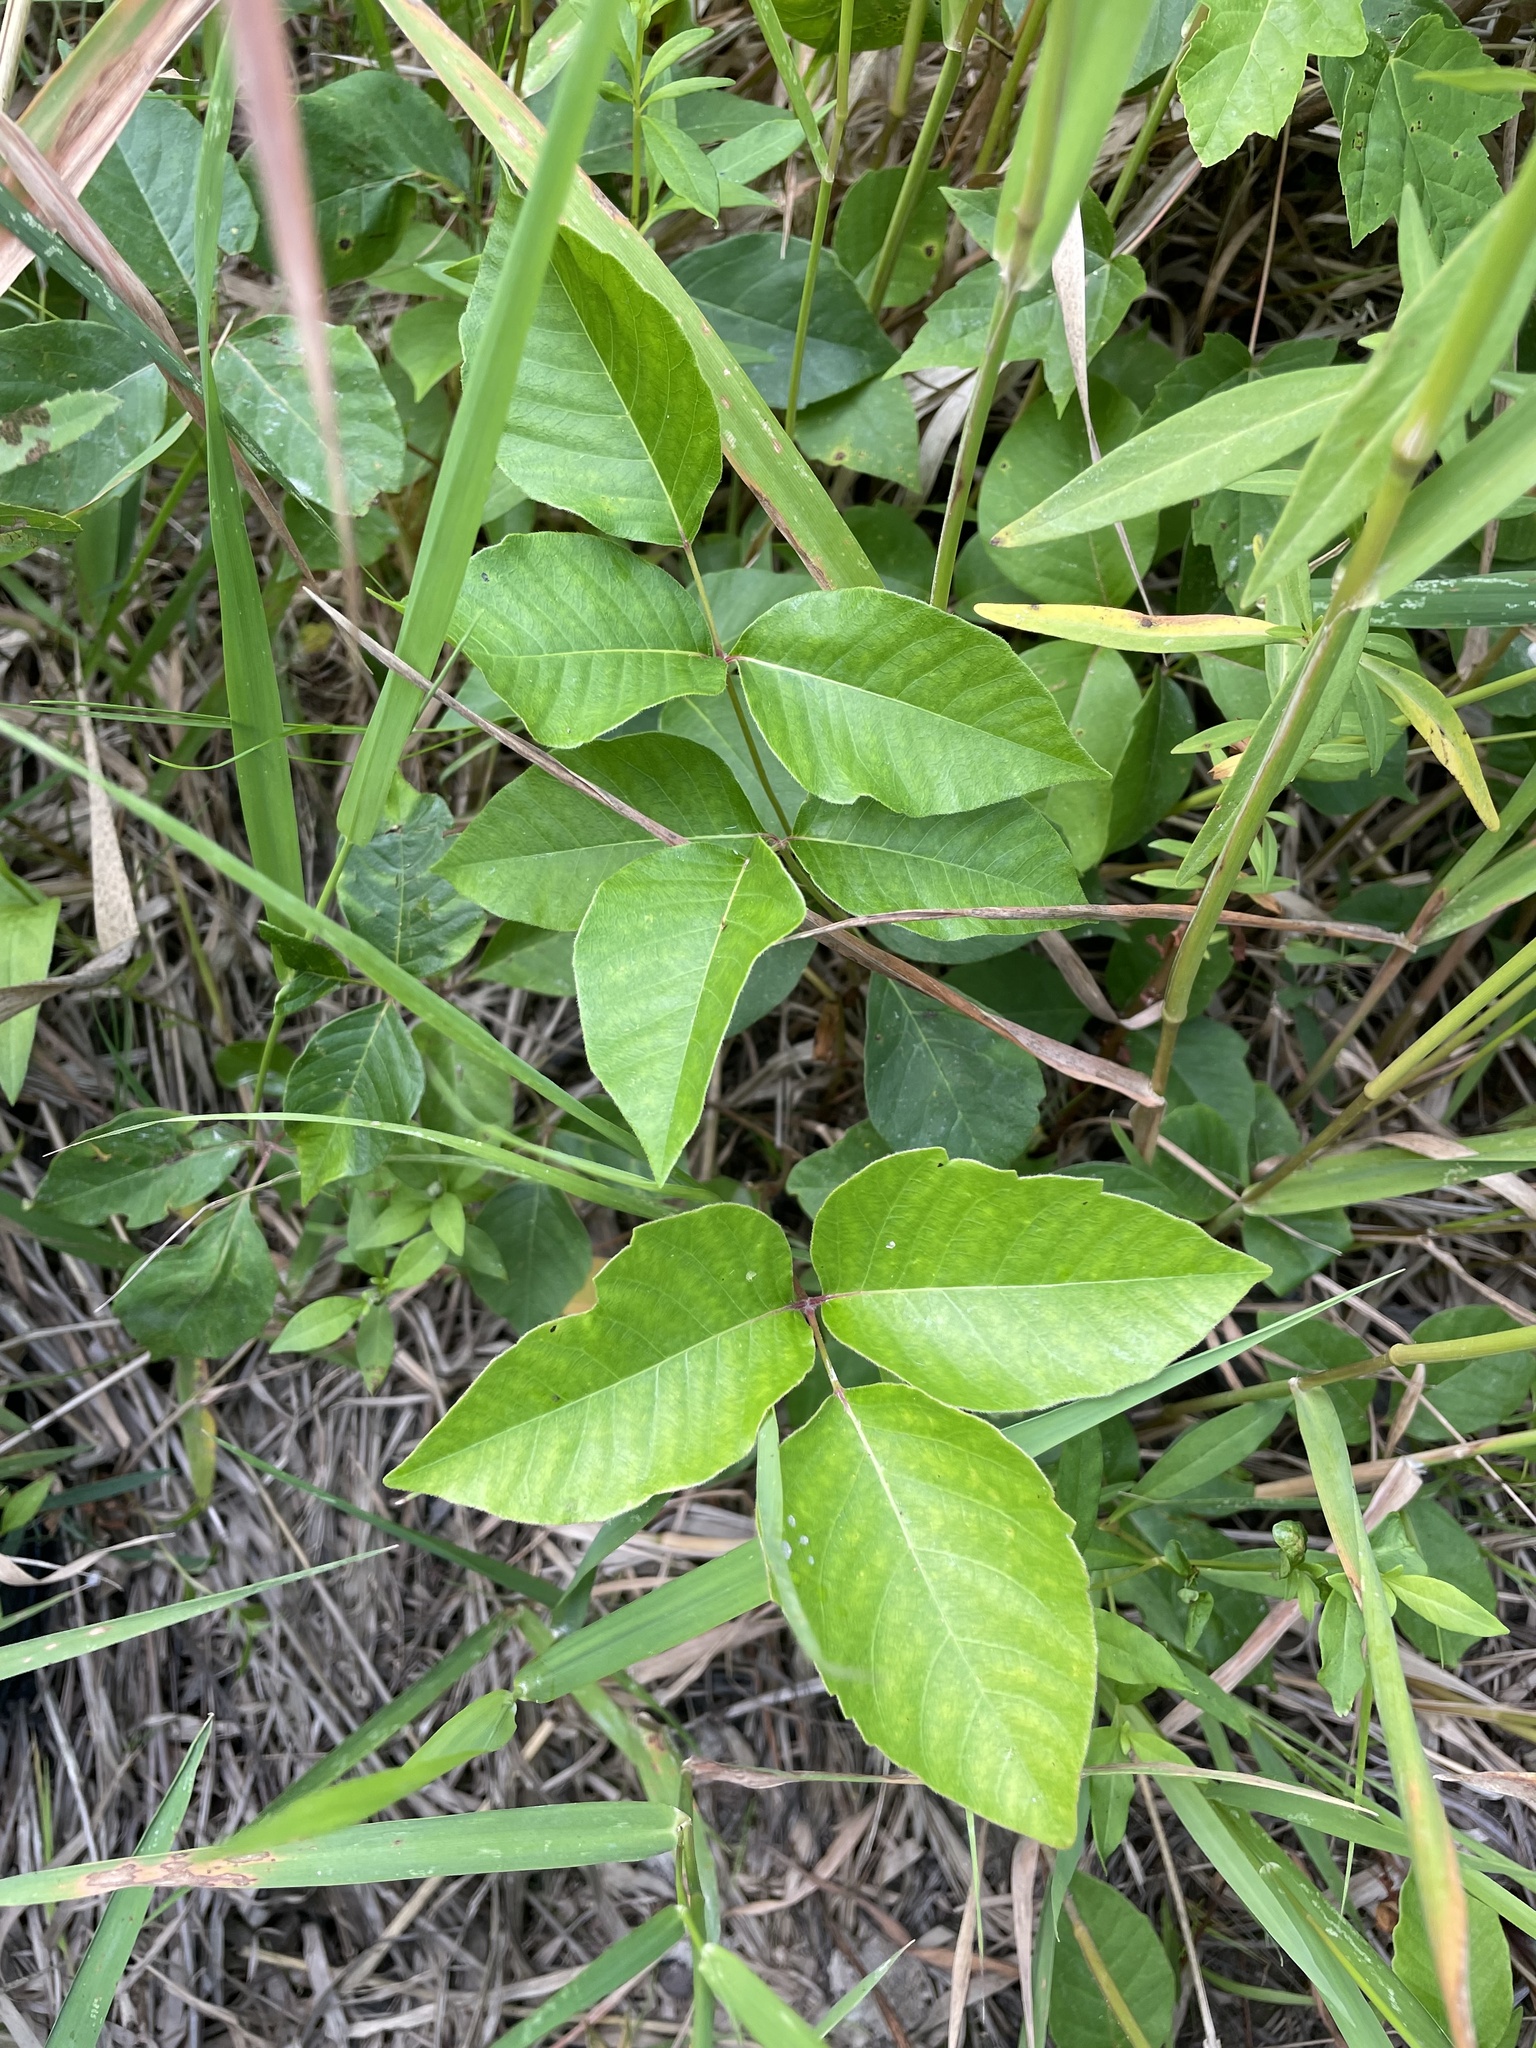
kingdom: Plantae
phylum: Tracheophyta
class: Magnoliopsida
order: Sapindales
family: Anacardiaceae
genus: Toxicodendron
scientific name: Toxicodendron rydbergii
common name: Rydberg's poison-ivy
